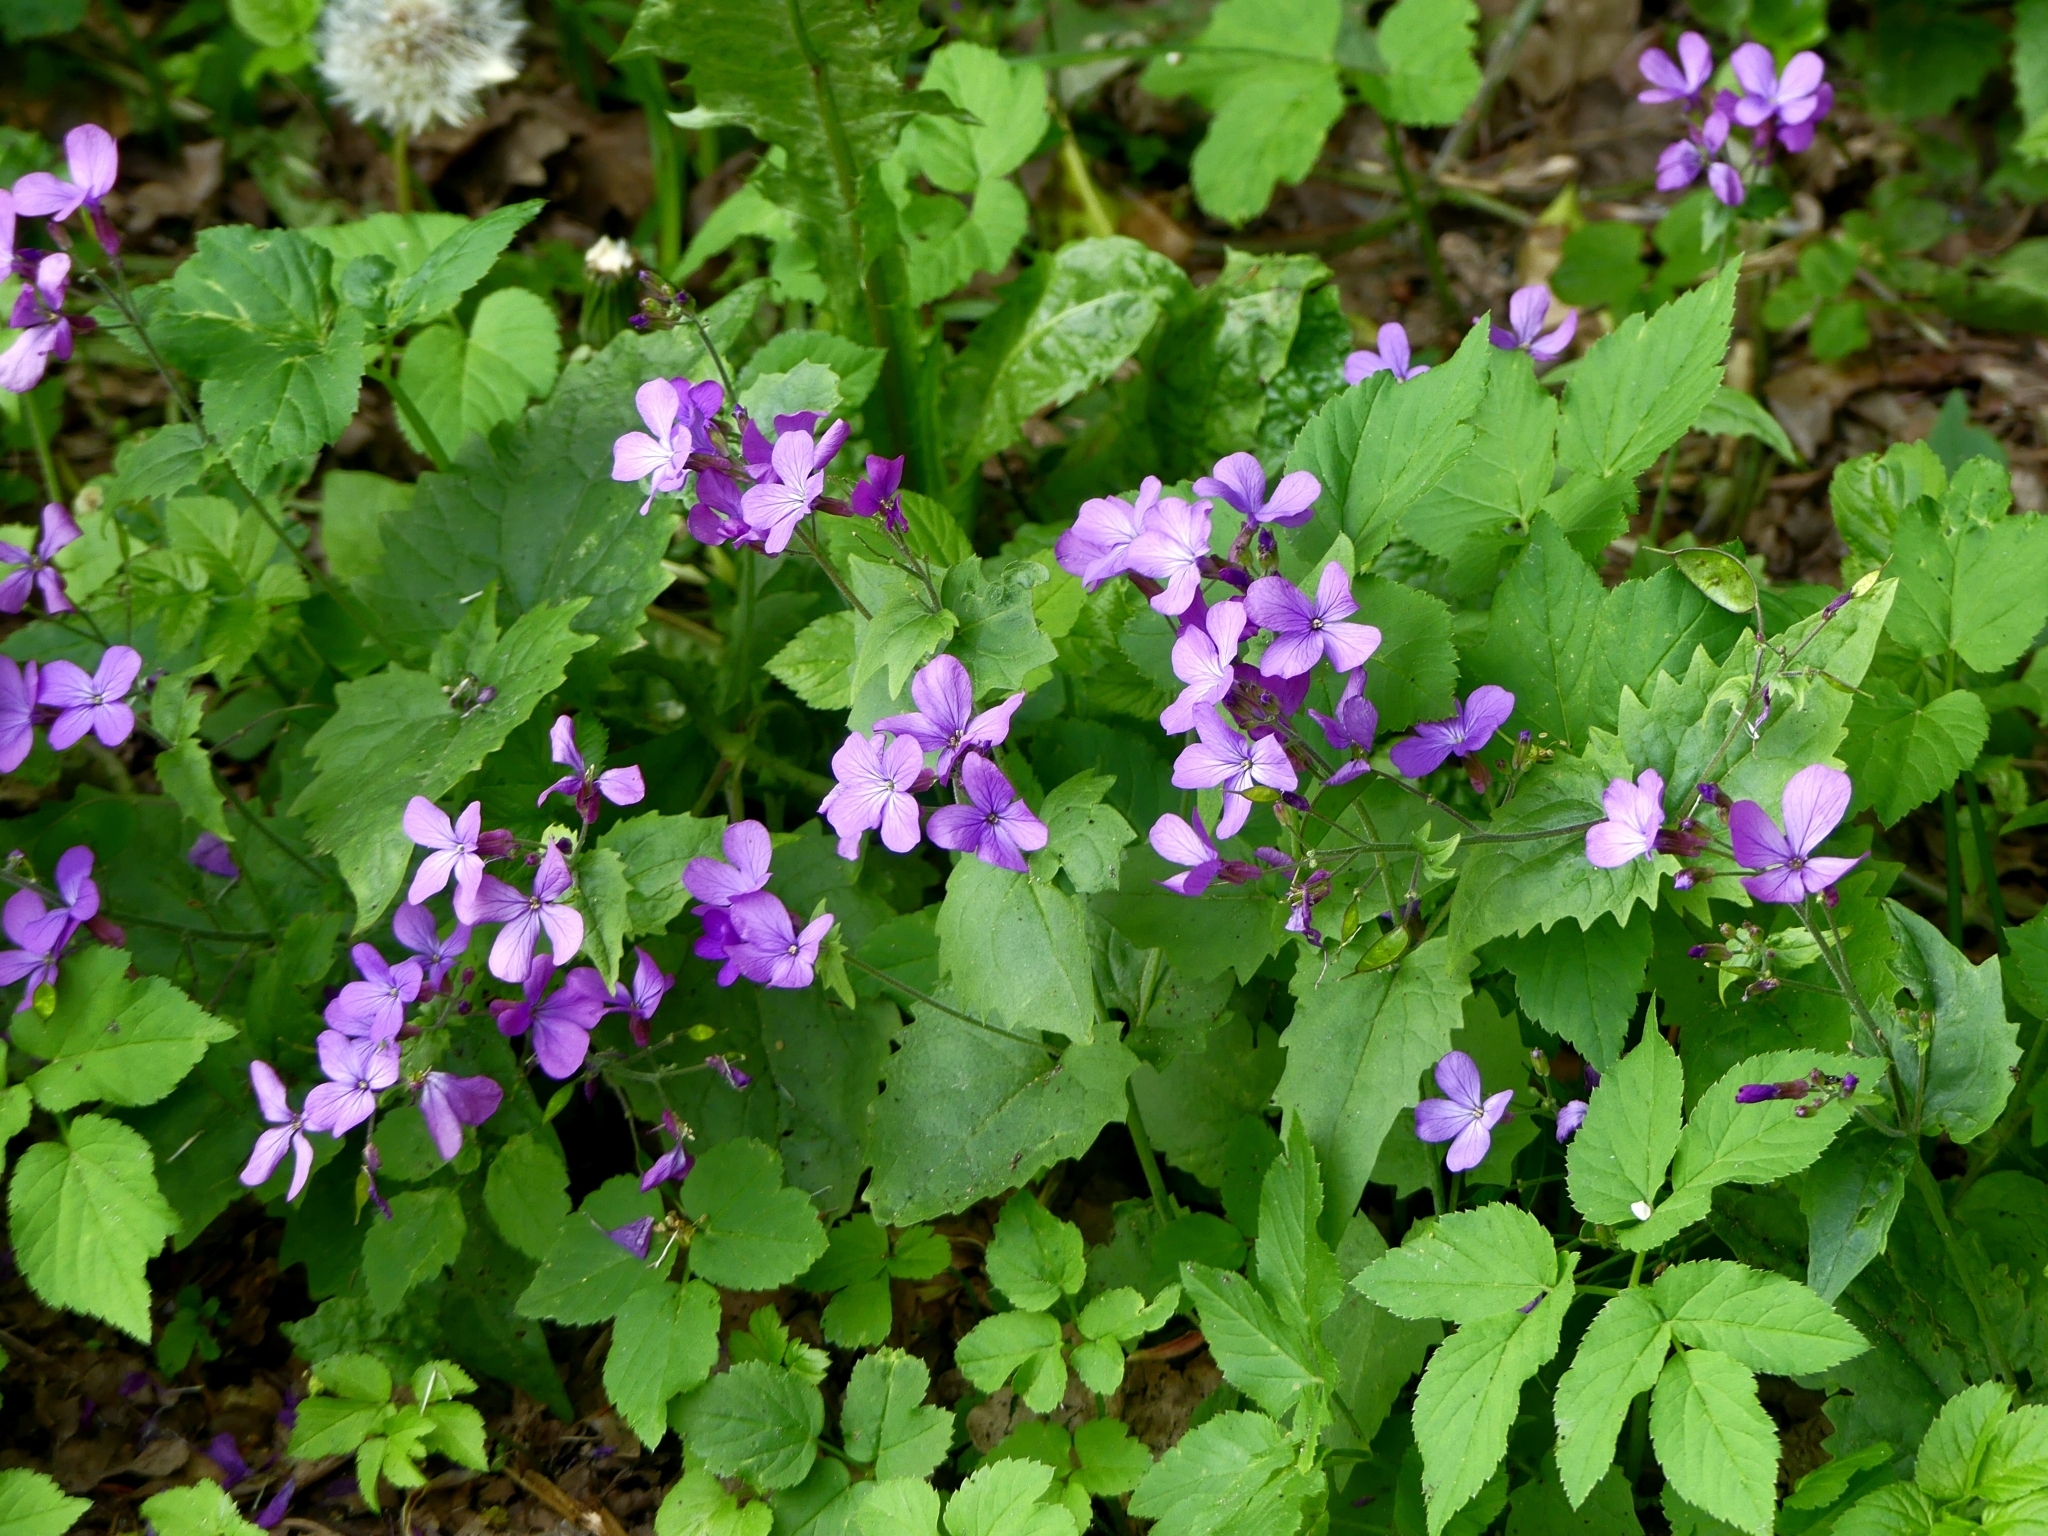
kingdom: Plantae
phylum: Tracheophyta
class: Magnoliopsida
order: Brassicales
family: Brassicaceae
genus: Lunaria
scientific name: Lunaria annua
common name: Honesty
